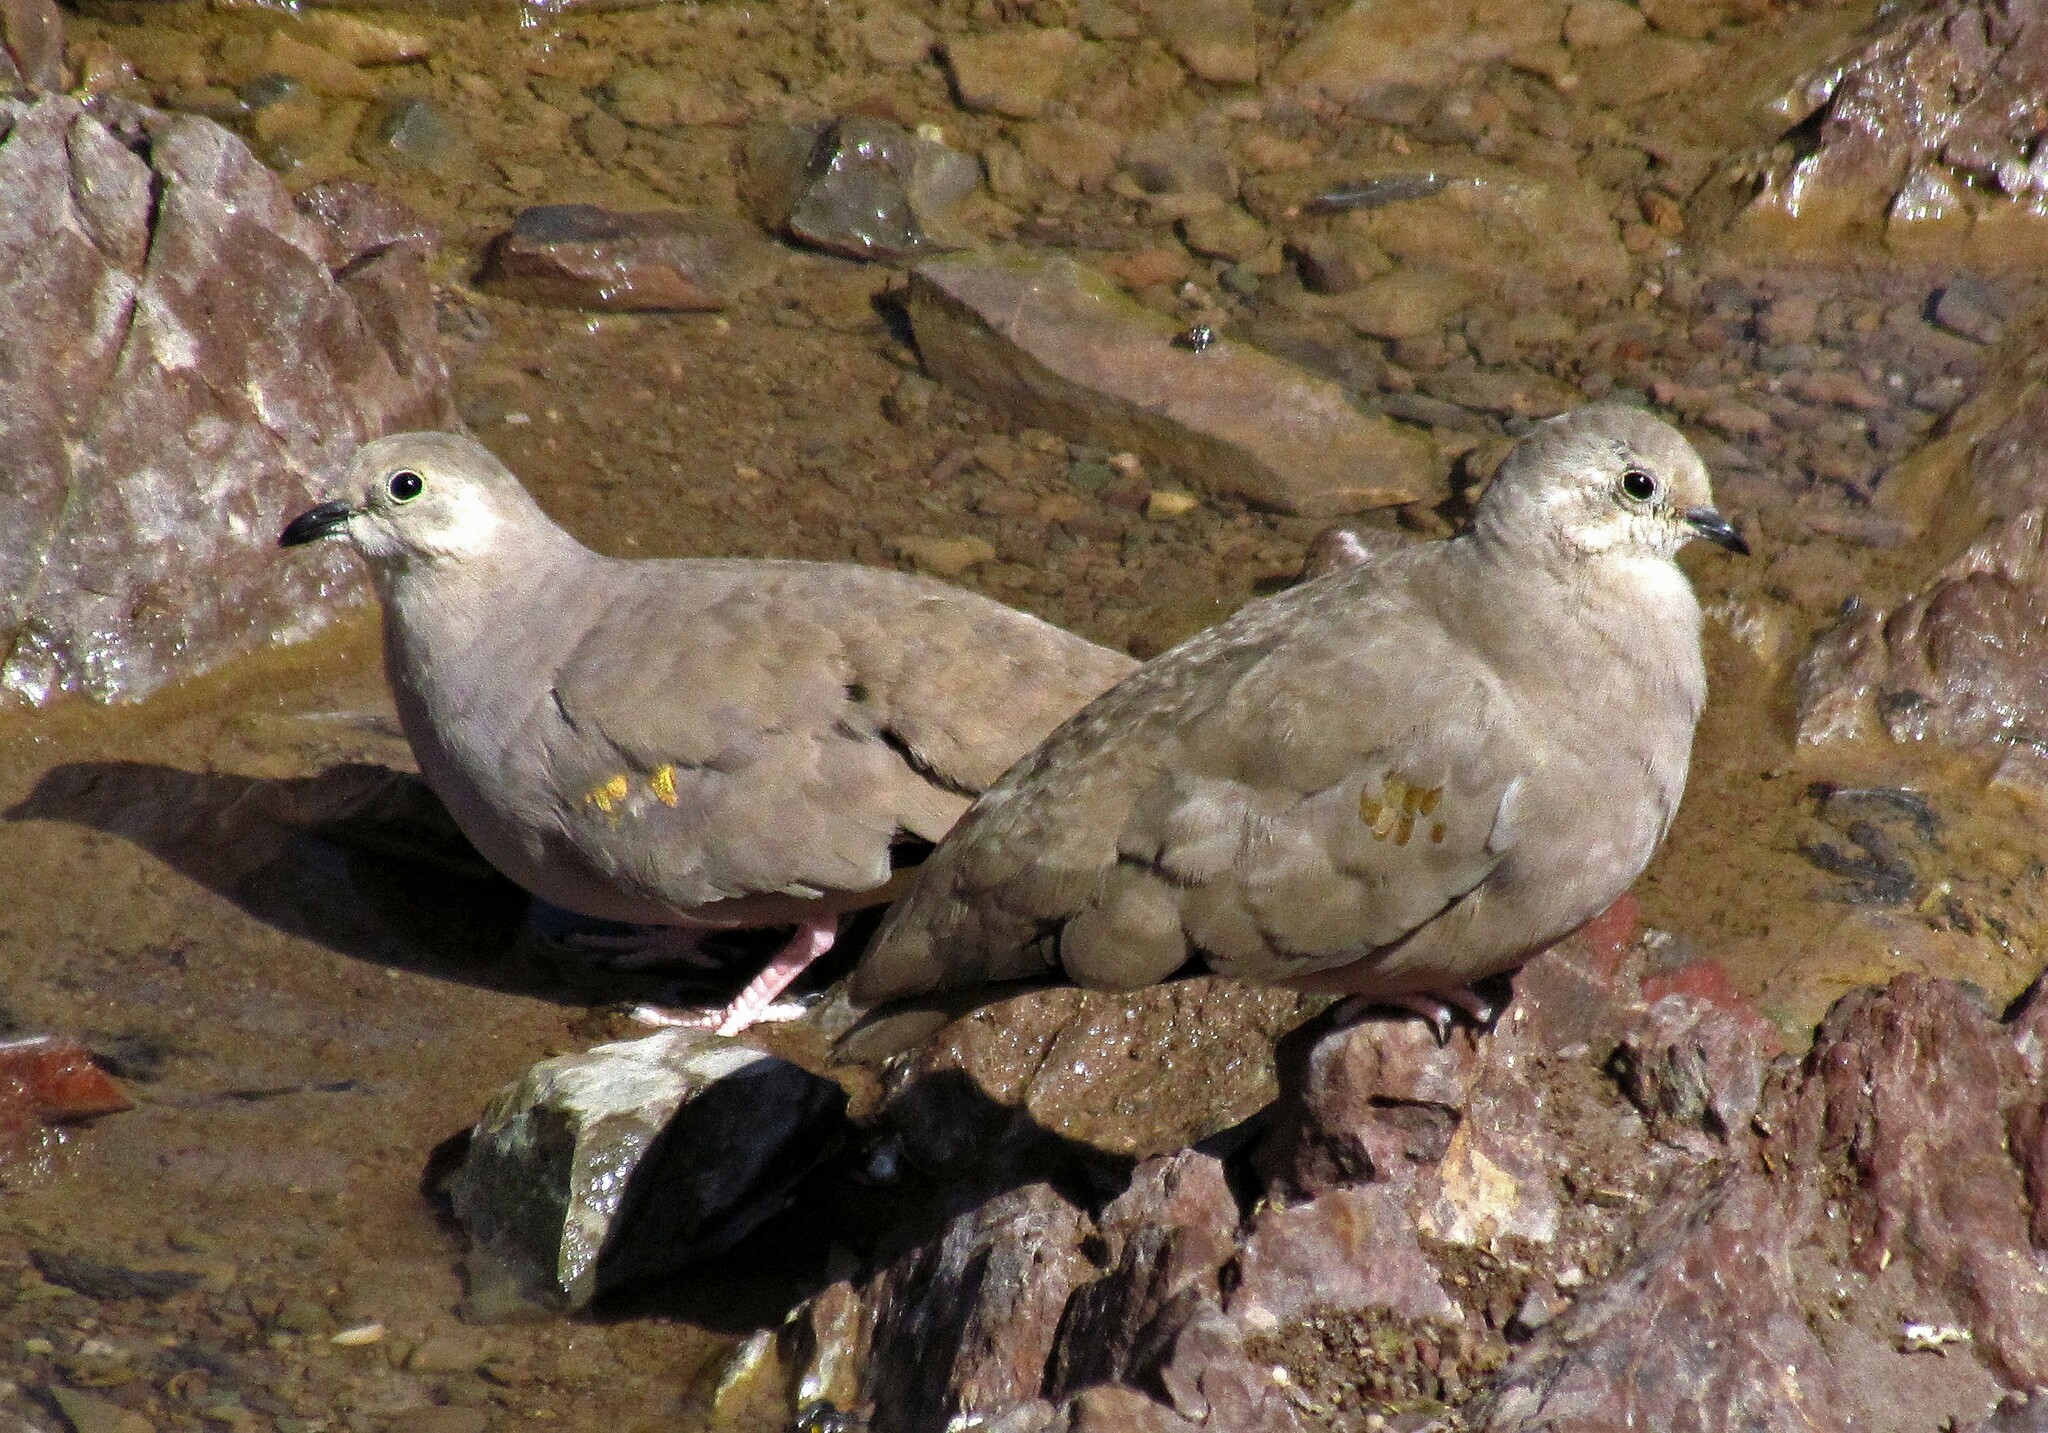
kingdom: Animalia
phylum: Chordata
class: Aves
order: Columbiformes
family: Columbidae
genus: Metriopelia
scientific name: Metriopelia aymara
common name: Golden-spotted ground dove
